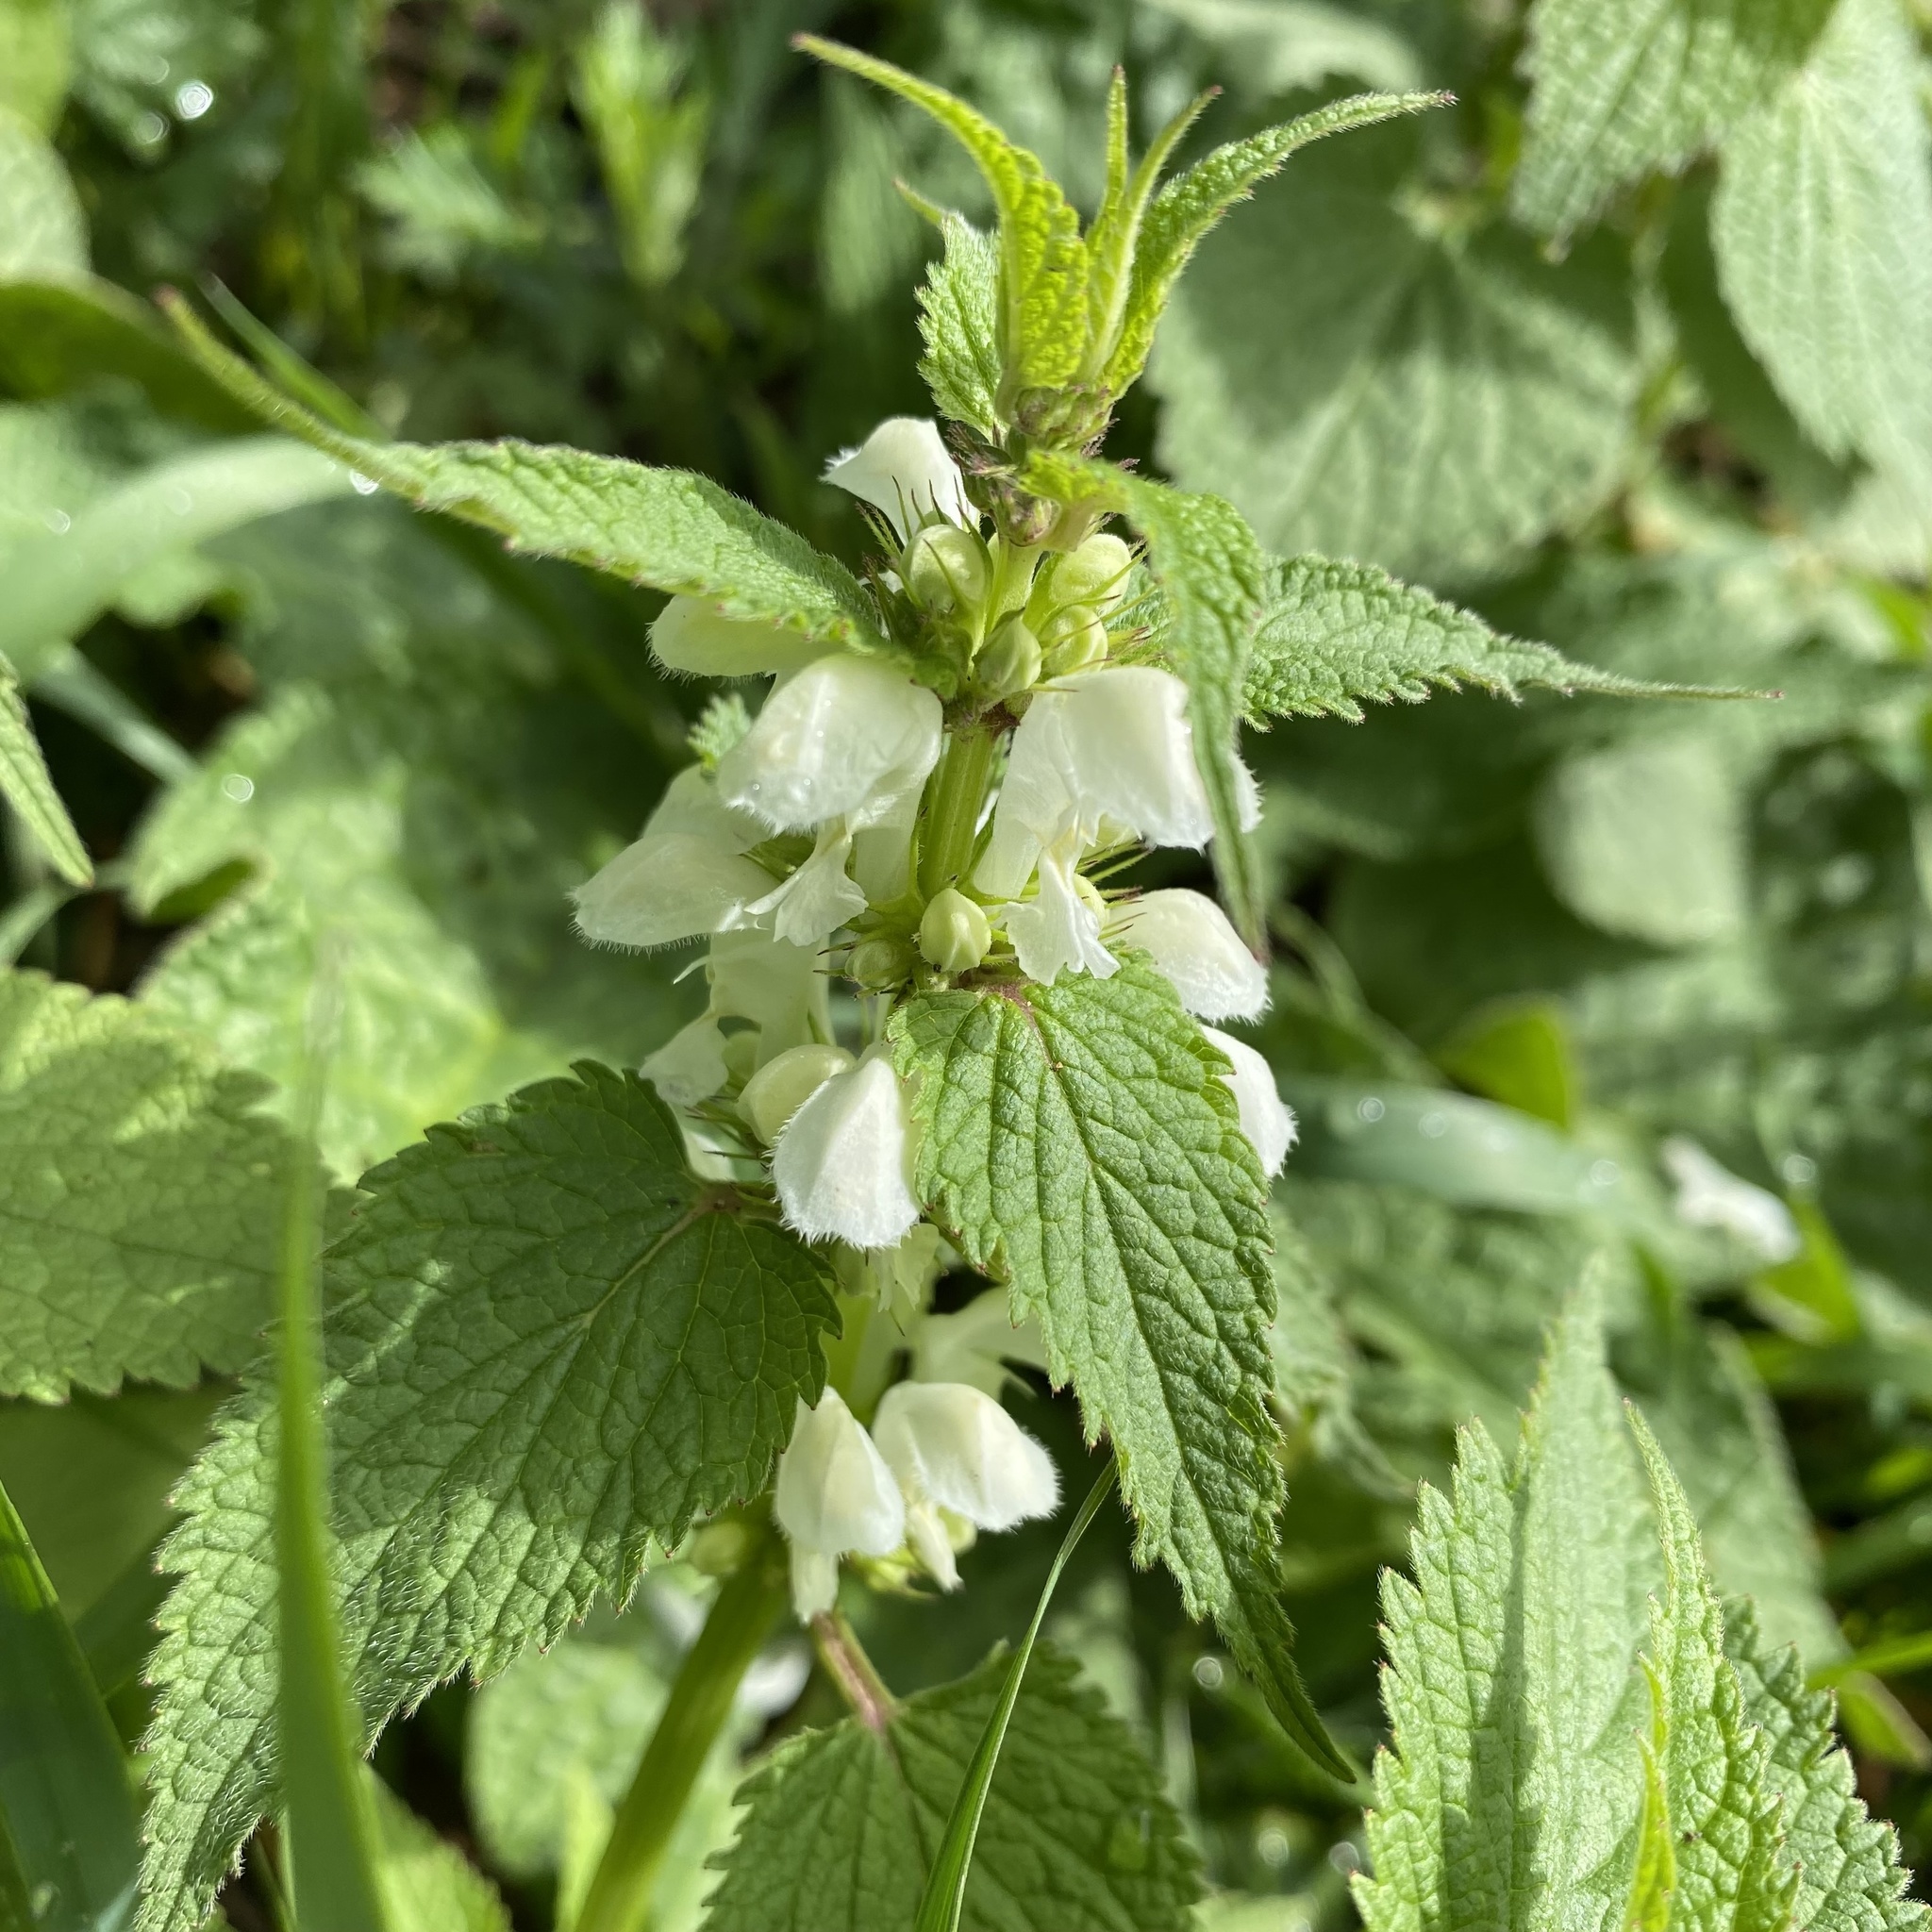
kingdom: Plantae
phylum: Tracheophyta
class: Magnoliopsida
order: Lamiales
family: Lamiaceae
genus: Lamium
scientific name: Lamium album
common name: White dead-nettle
